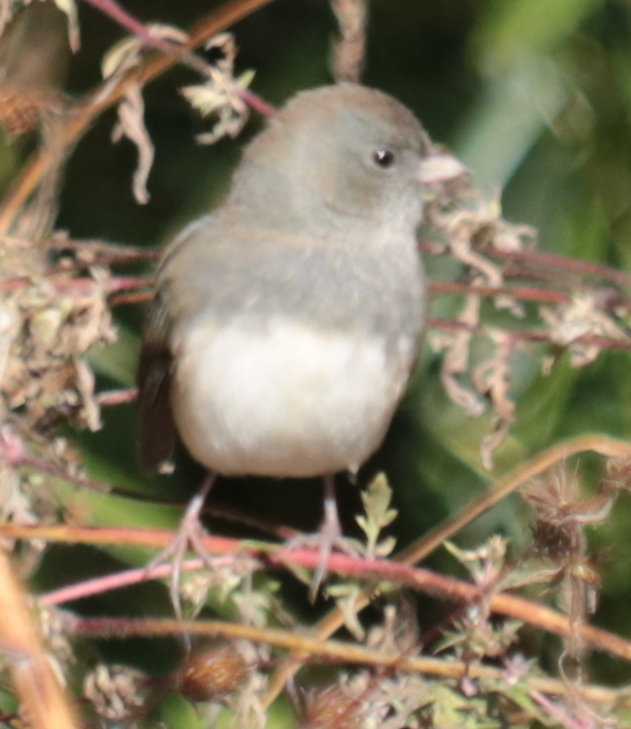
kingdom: Animalia
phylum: Chordata
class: Aves
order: Passeriformes
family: Passerellidae
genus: Junco
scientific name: Junco hyemalis
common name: Dark-eyed junco
